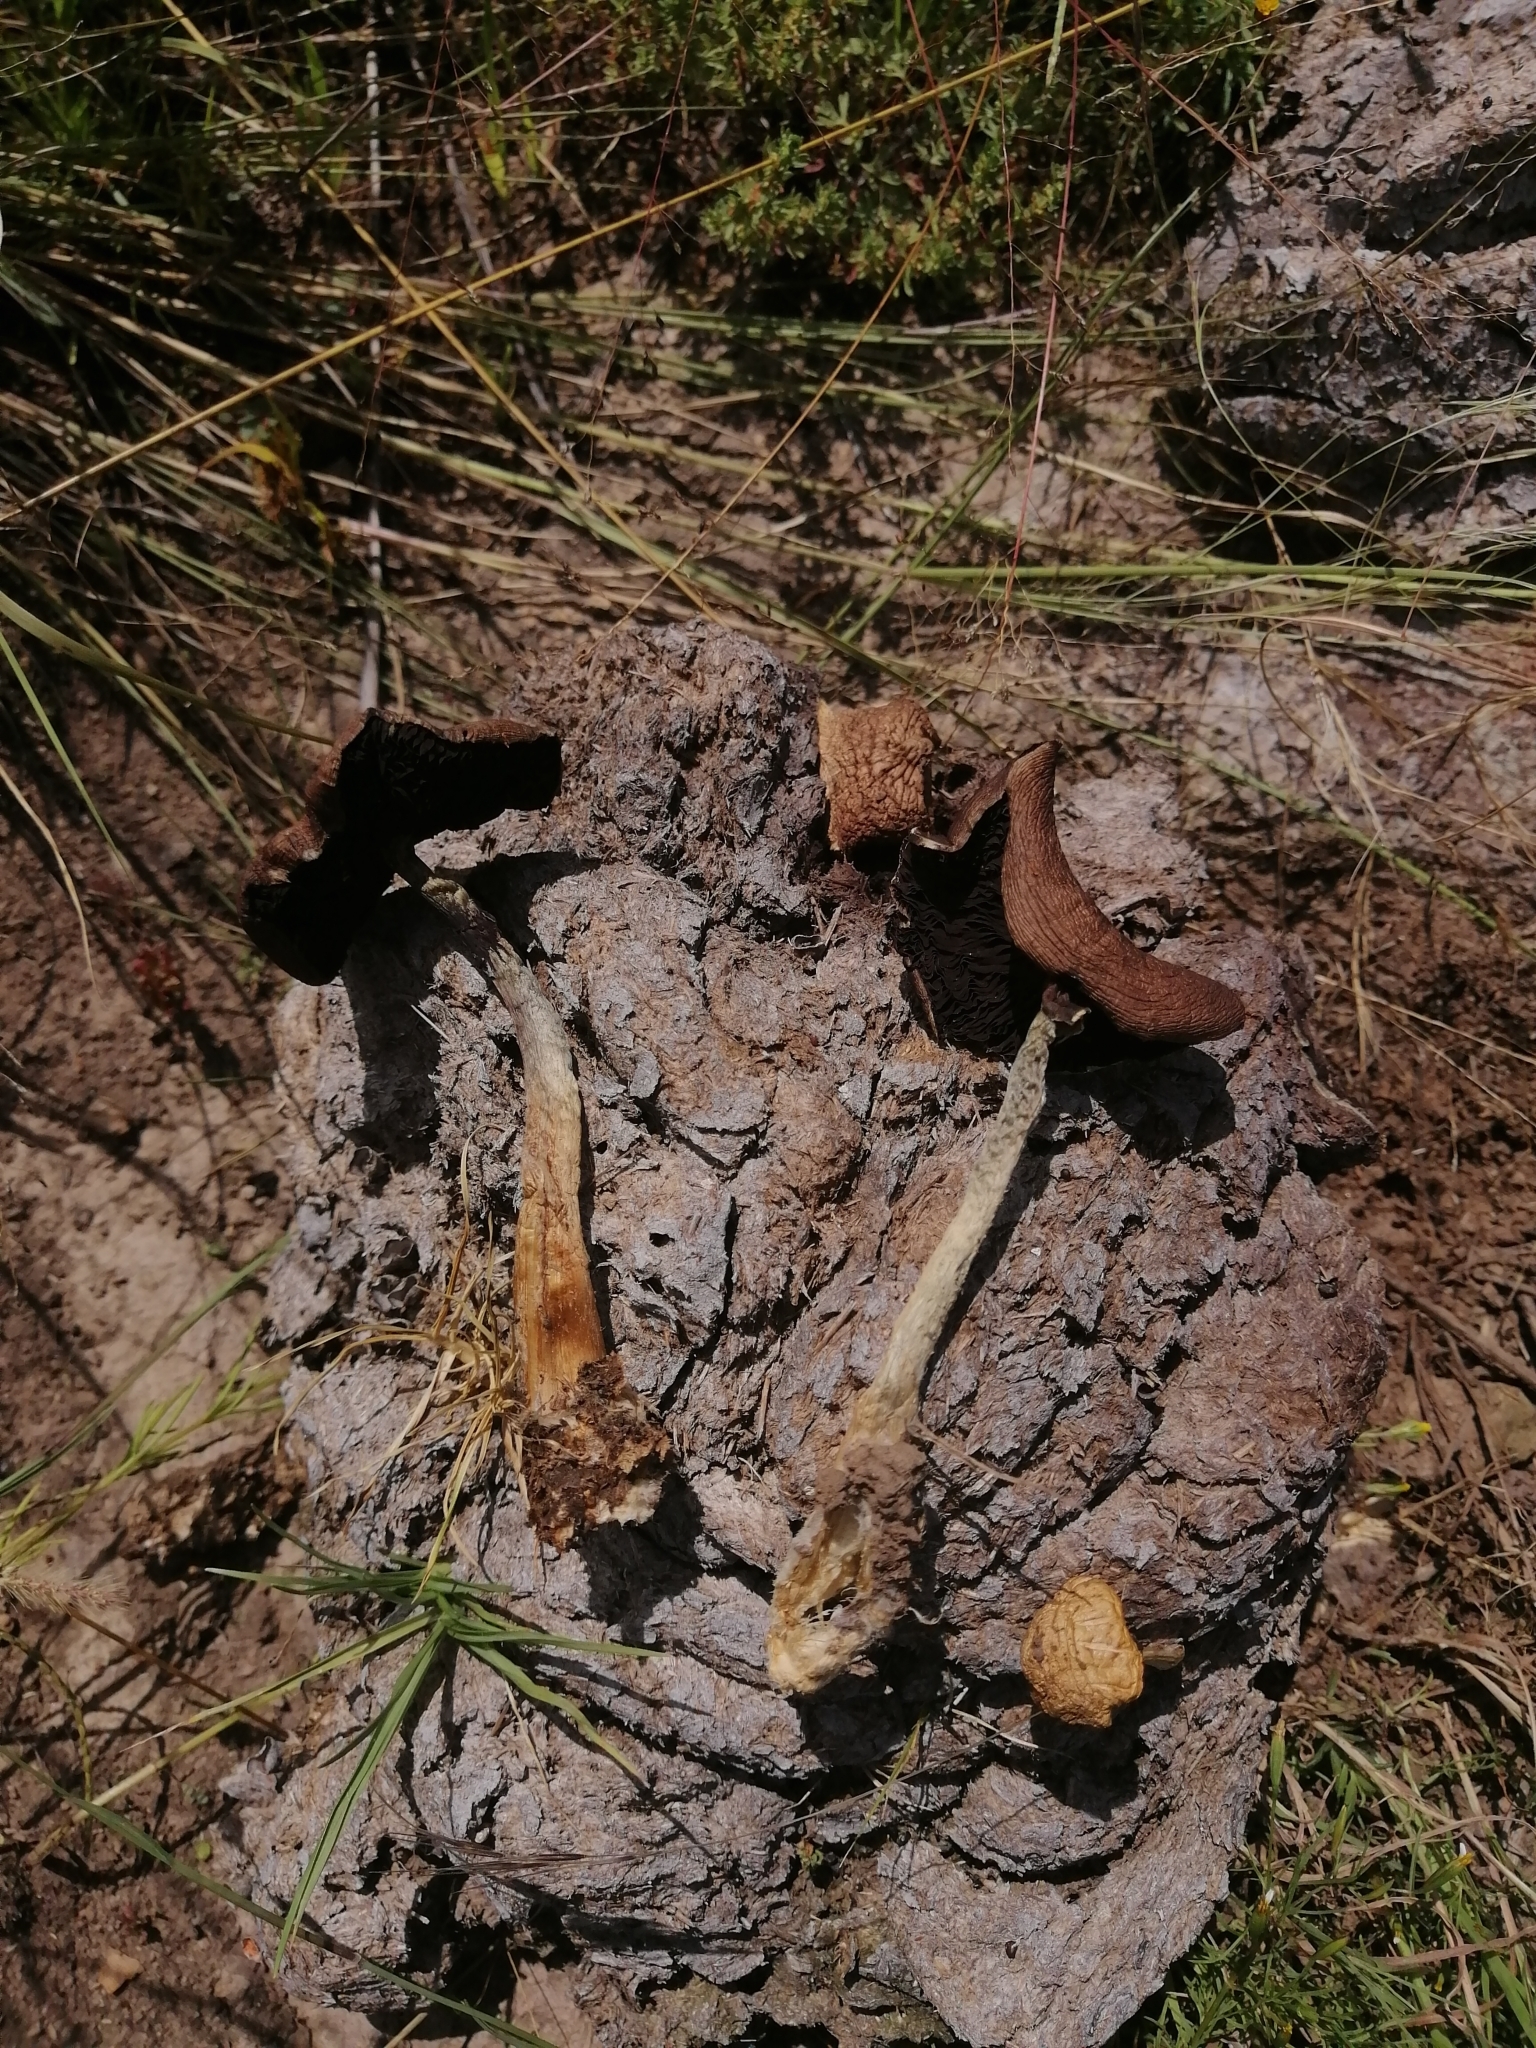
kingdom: Fungi
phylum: Basidiomycota
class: Agaricomycetes
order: Agaricales
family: Hymenogastraceae
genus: Psilocybe
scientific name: Psilocybe cubensis
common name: Golden brownie
